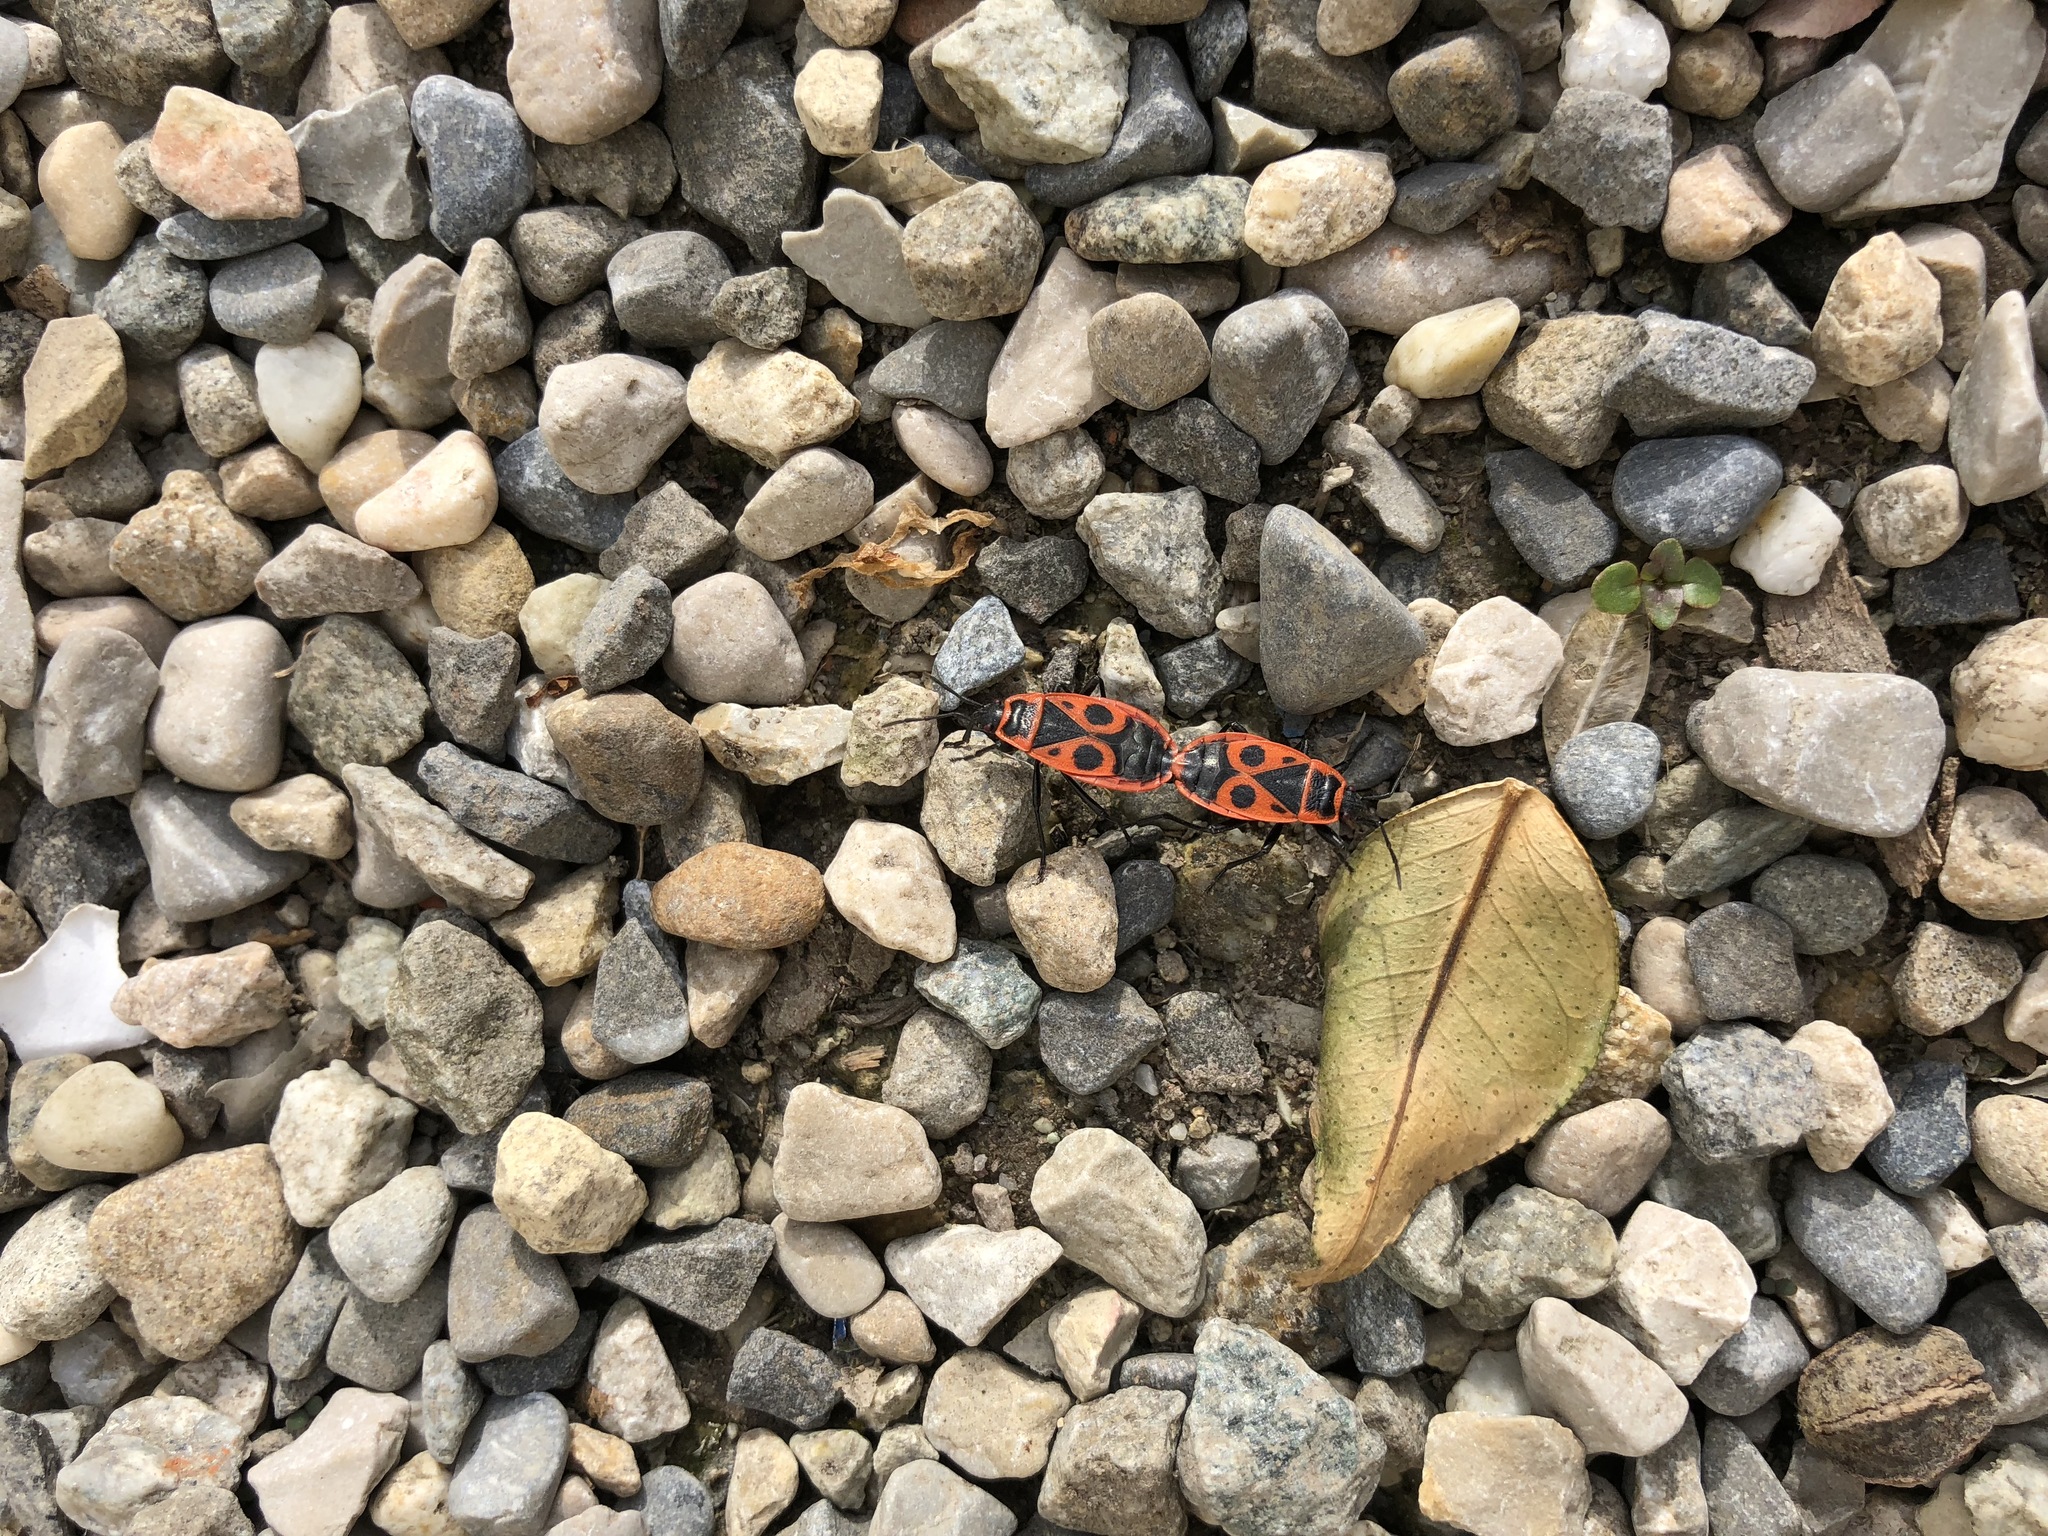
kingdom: Animalia
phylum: Arthropoda
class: Insecta
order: Hemiptera
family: Pyrrhocoridae
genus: Pyrrhocoris
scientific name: Pyrrhocoris apterus
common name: Firebug
